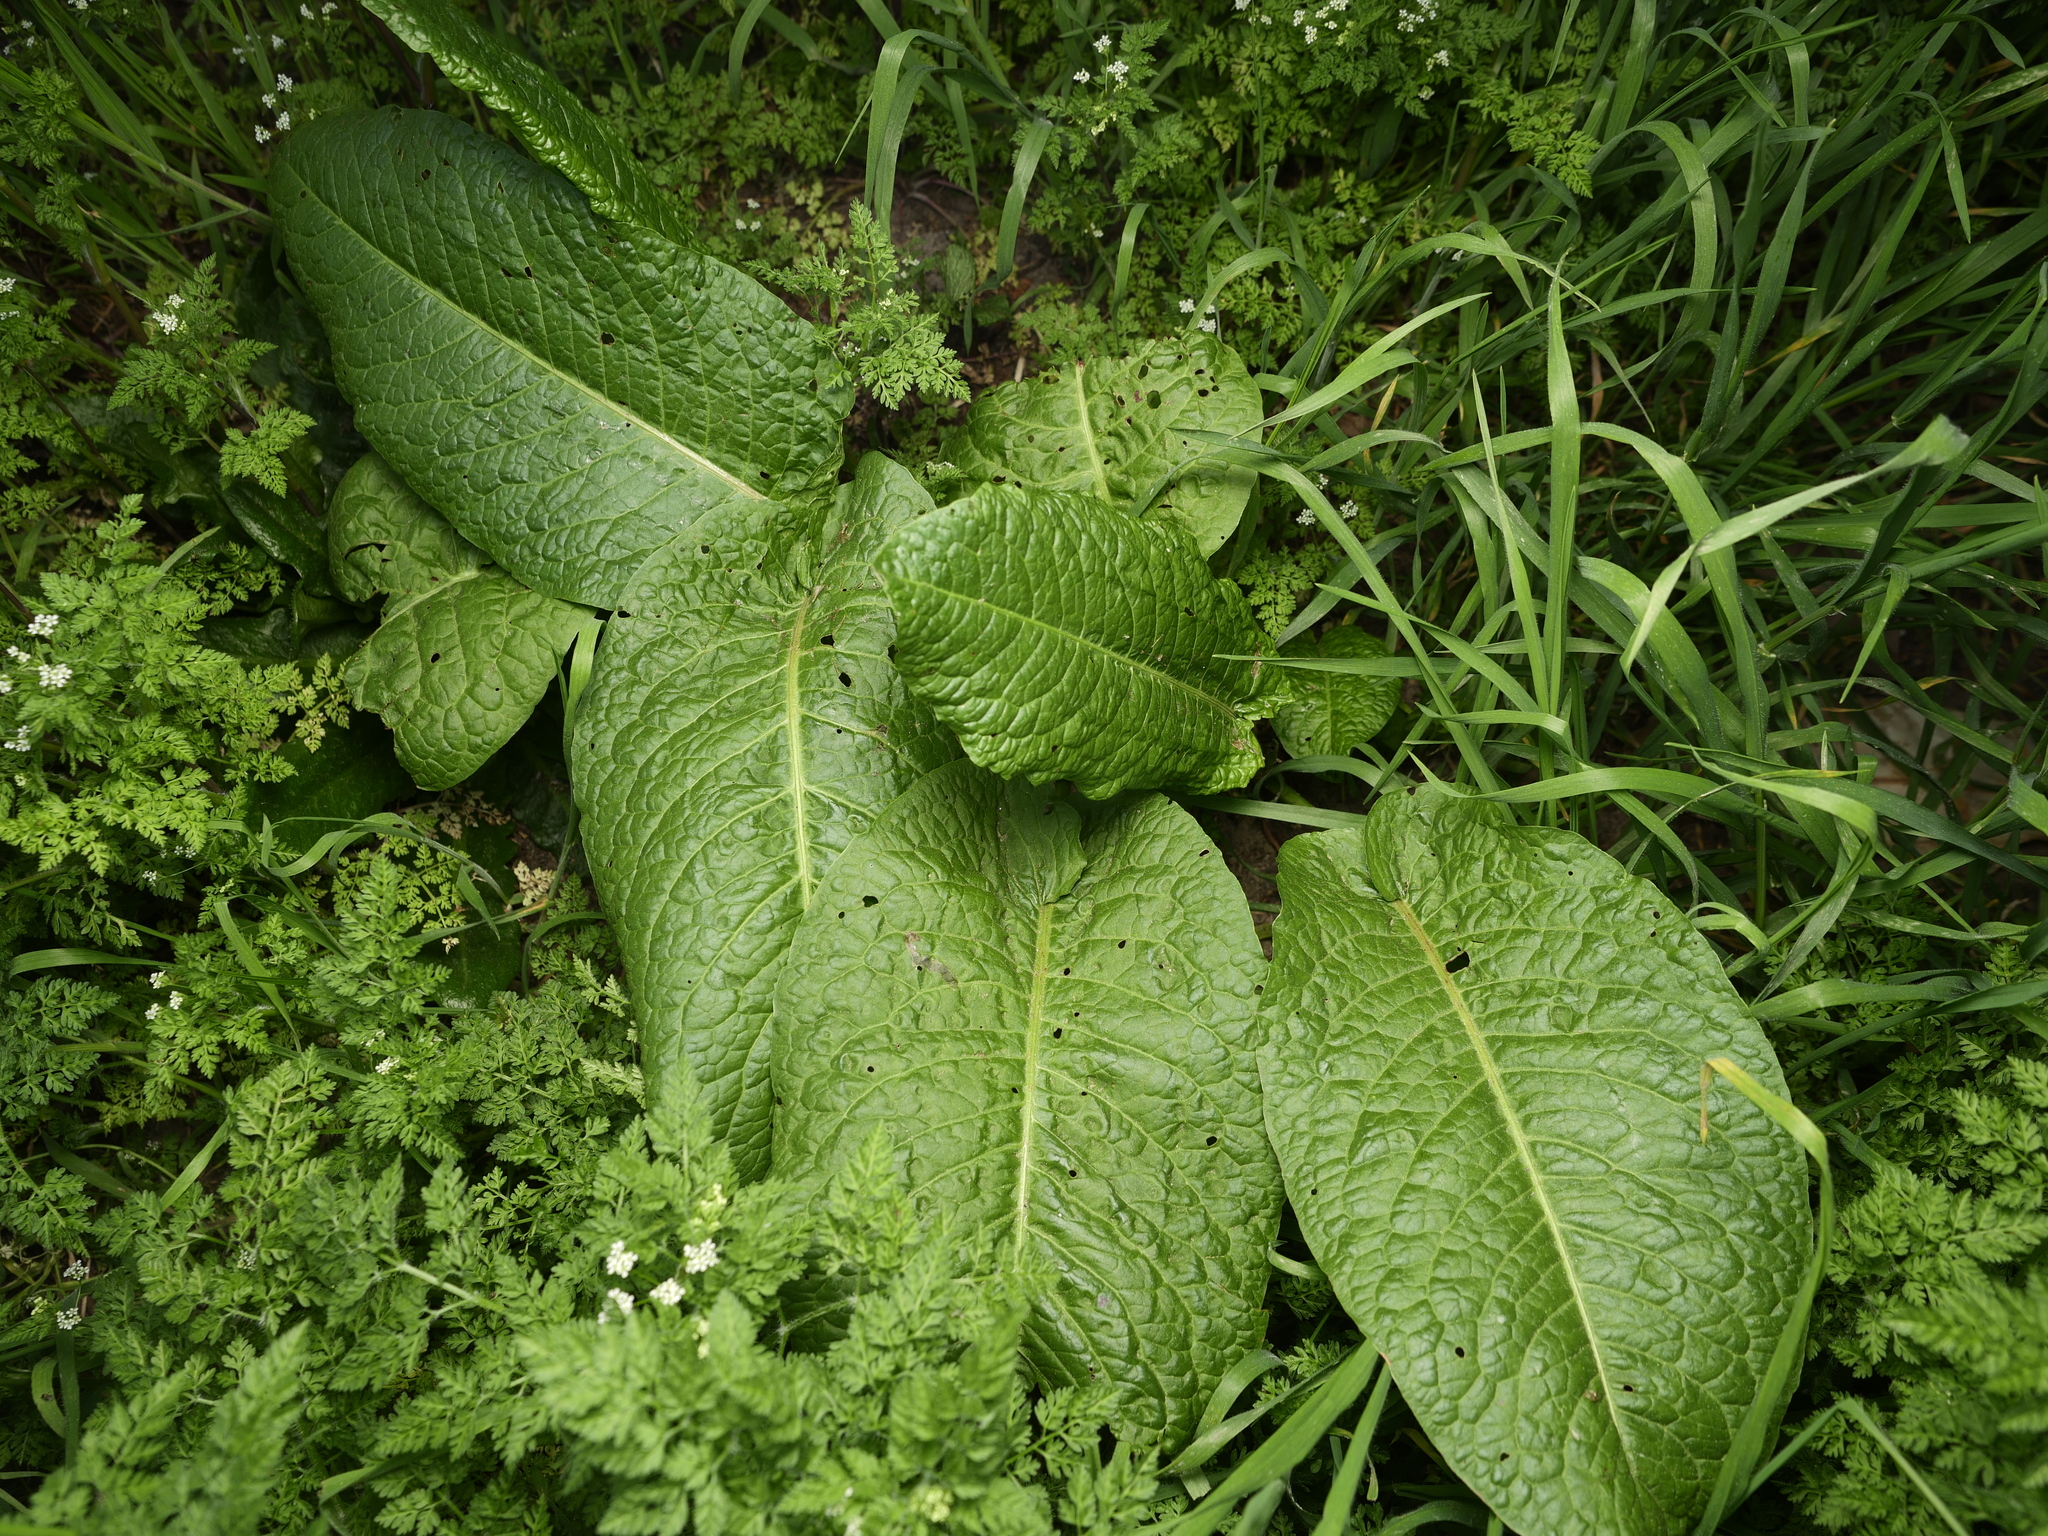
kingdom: Plantae
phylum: Tracheophyta
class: Magnoliopsida
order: Caryophyllales
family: Polygonaceae
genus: Rumex
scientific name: Rumex obtusifolius
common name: Bitter dock
